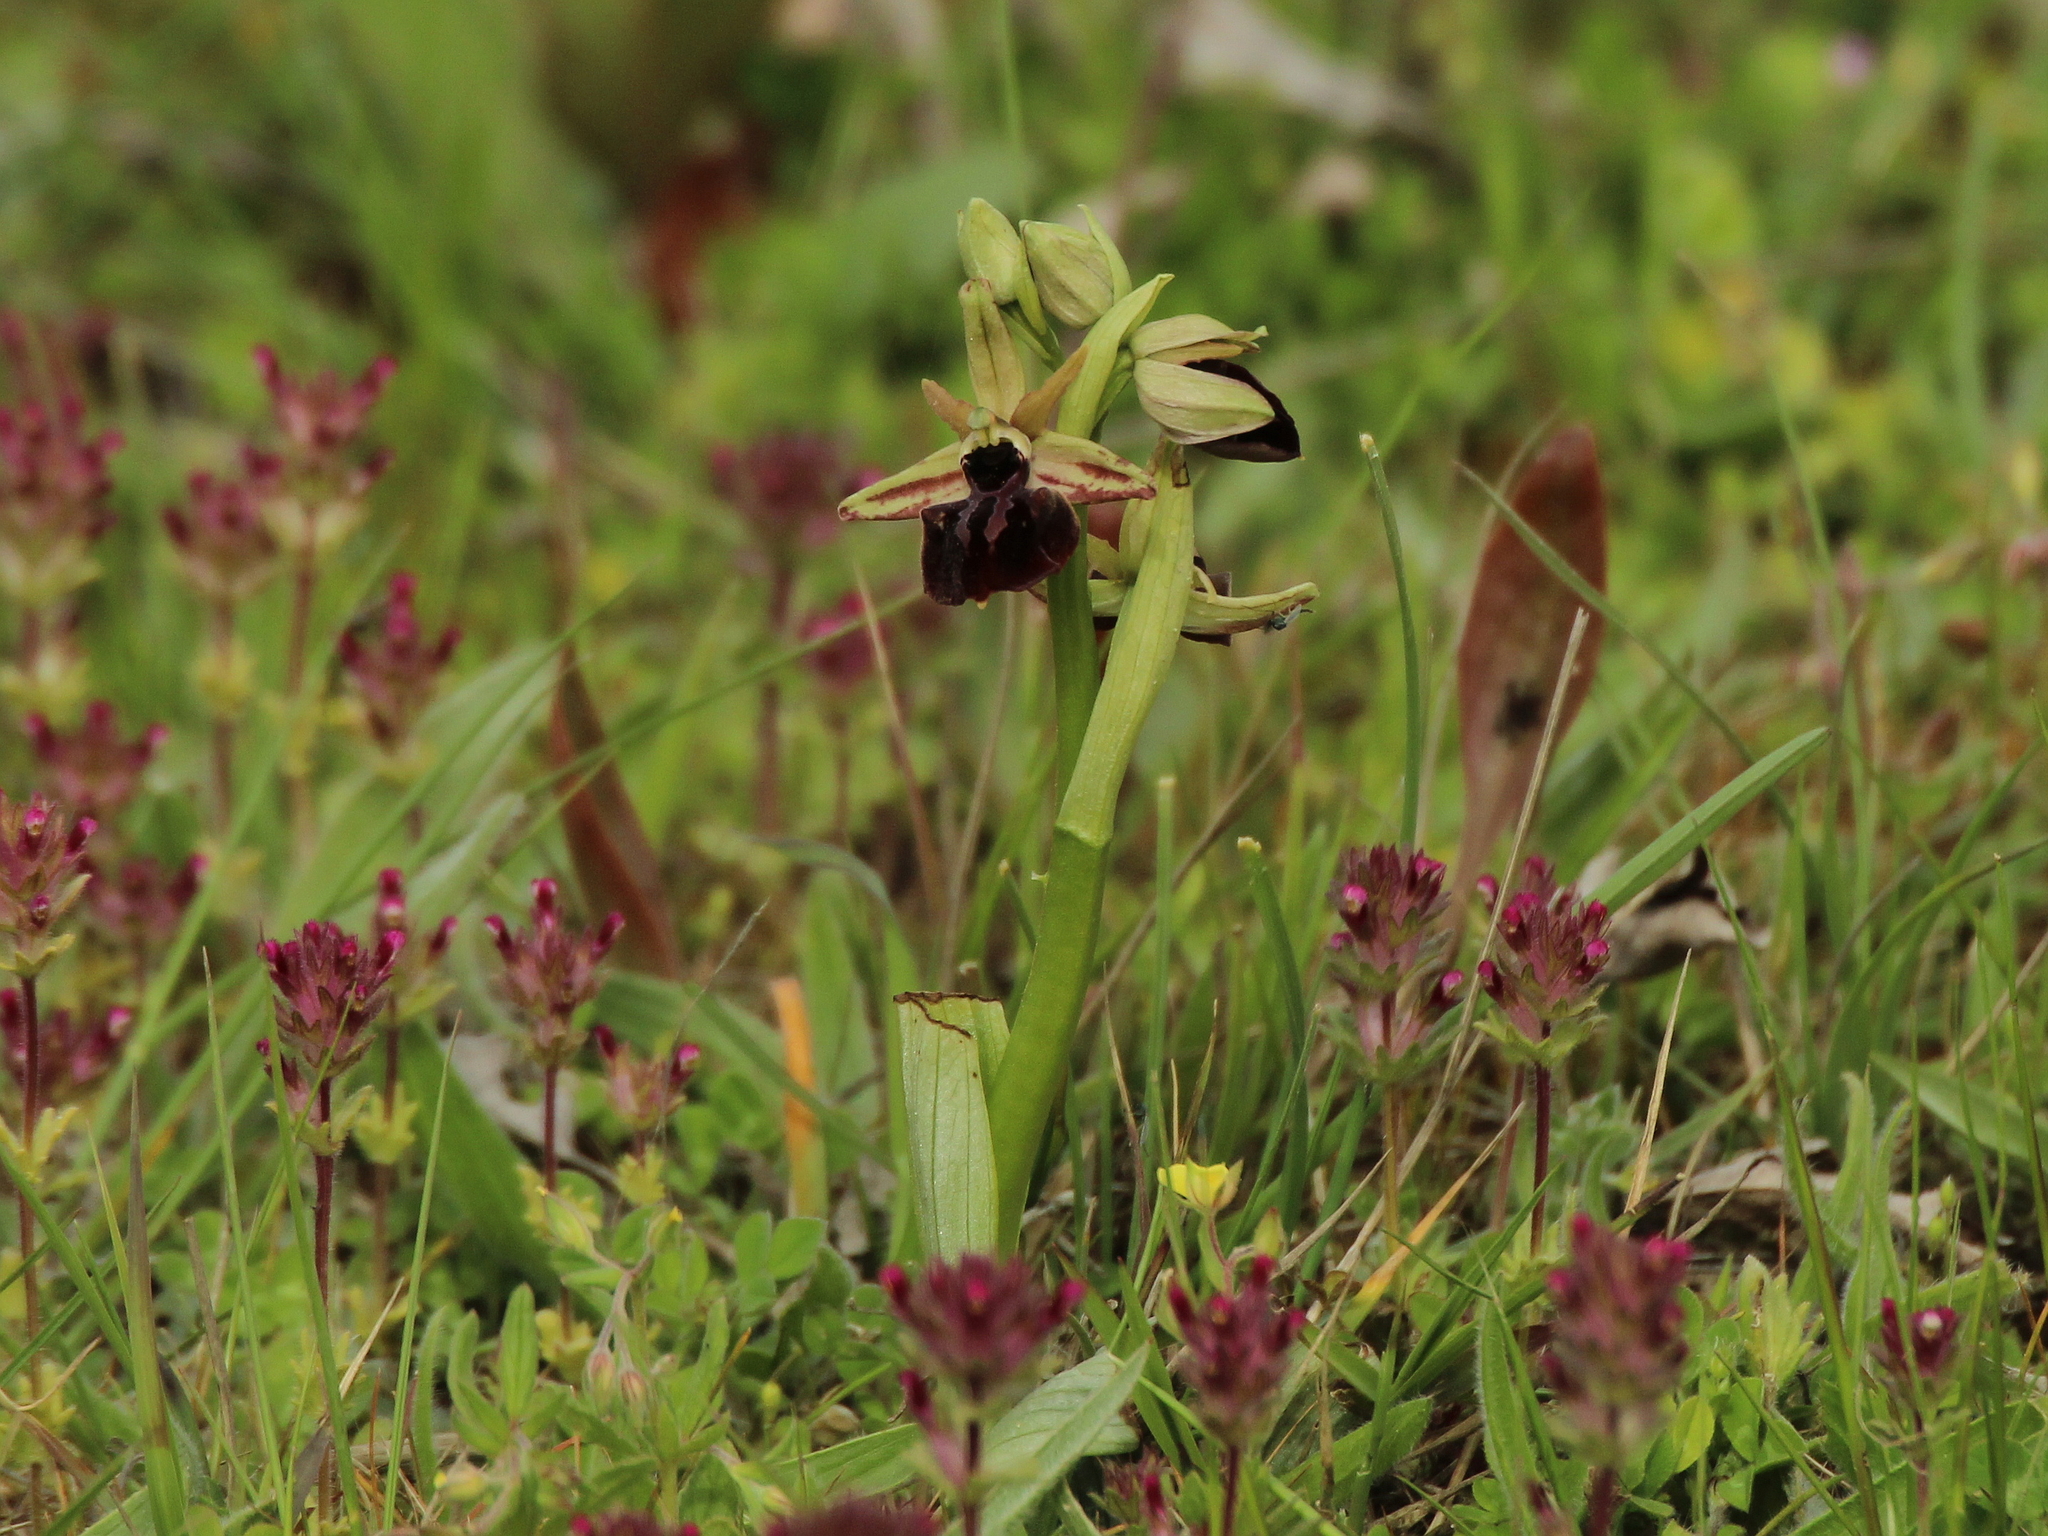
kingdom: Plantae
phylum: Tracheophyta
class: Liliopsida
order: Asparagales
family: Orchidaceae
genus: Ophrys
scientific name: Ophrys sphegodes
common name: Early spider-orchid
